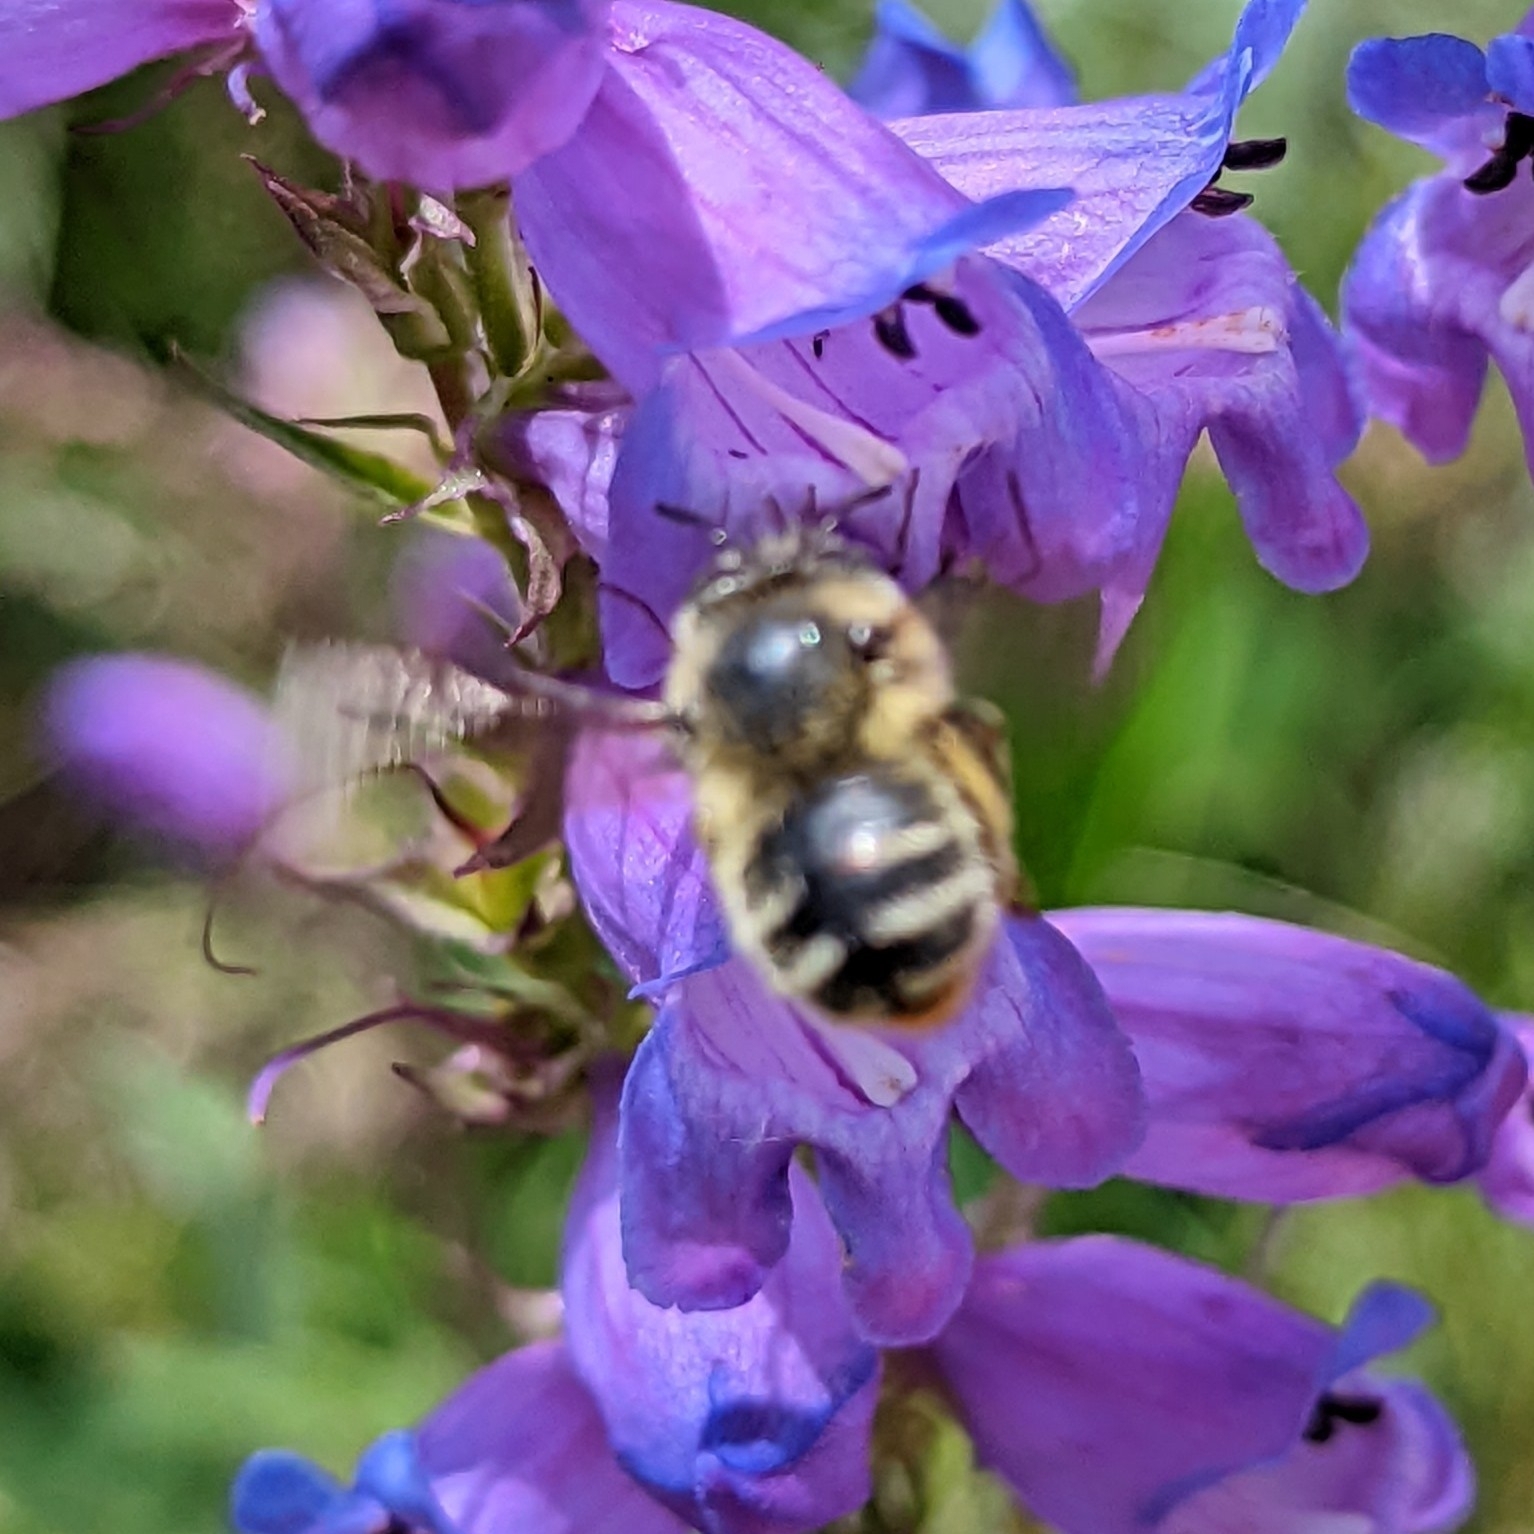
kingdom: Animalia
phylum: Arthropoda
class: Insecta
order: Hymenoptera
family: Apidae
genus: Anthophora
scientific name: Anthophora terminalis
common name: Orange-tipped wood-digger bee
